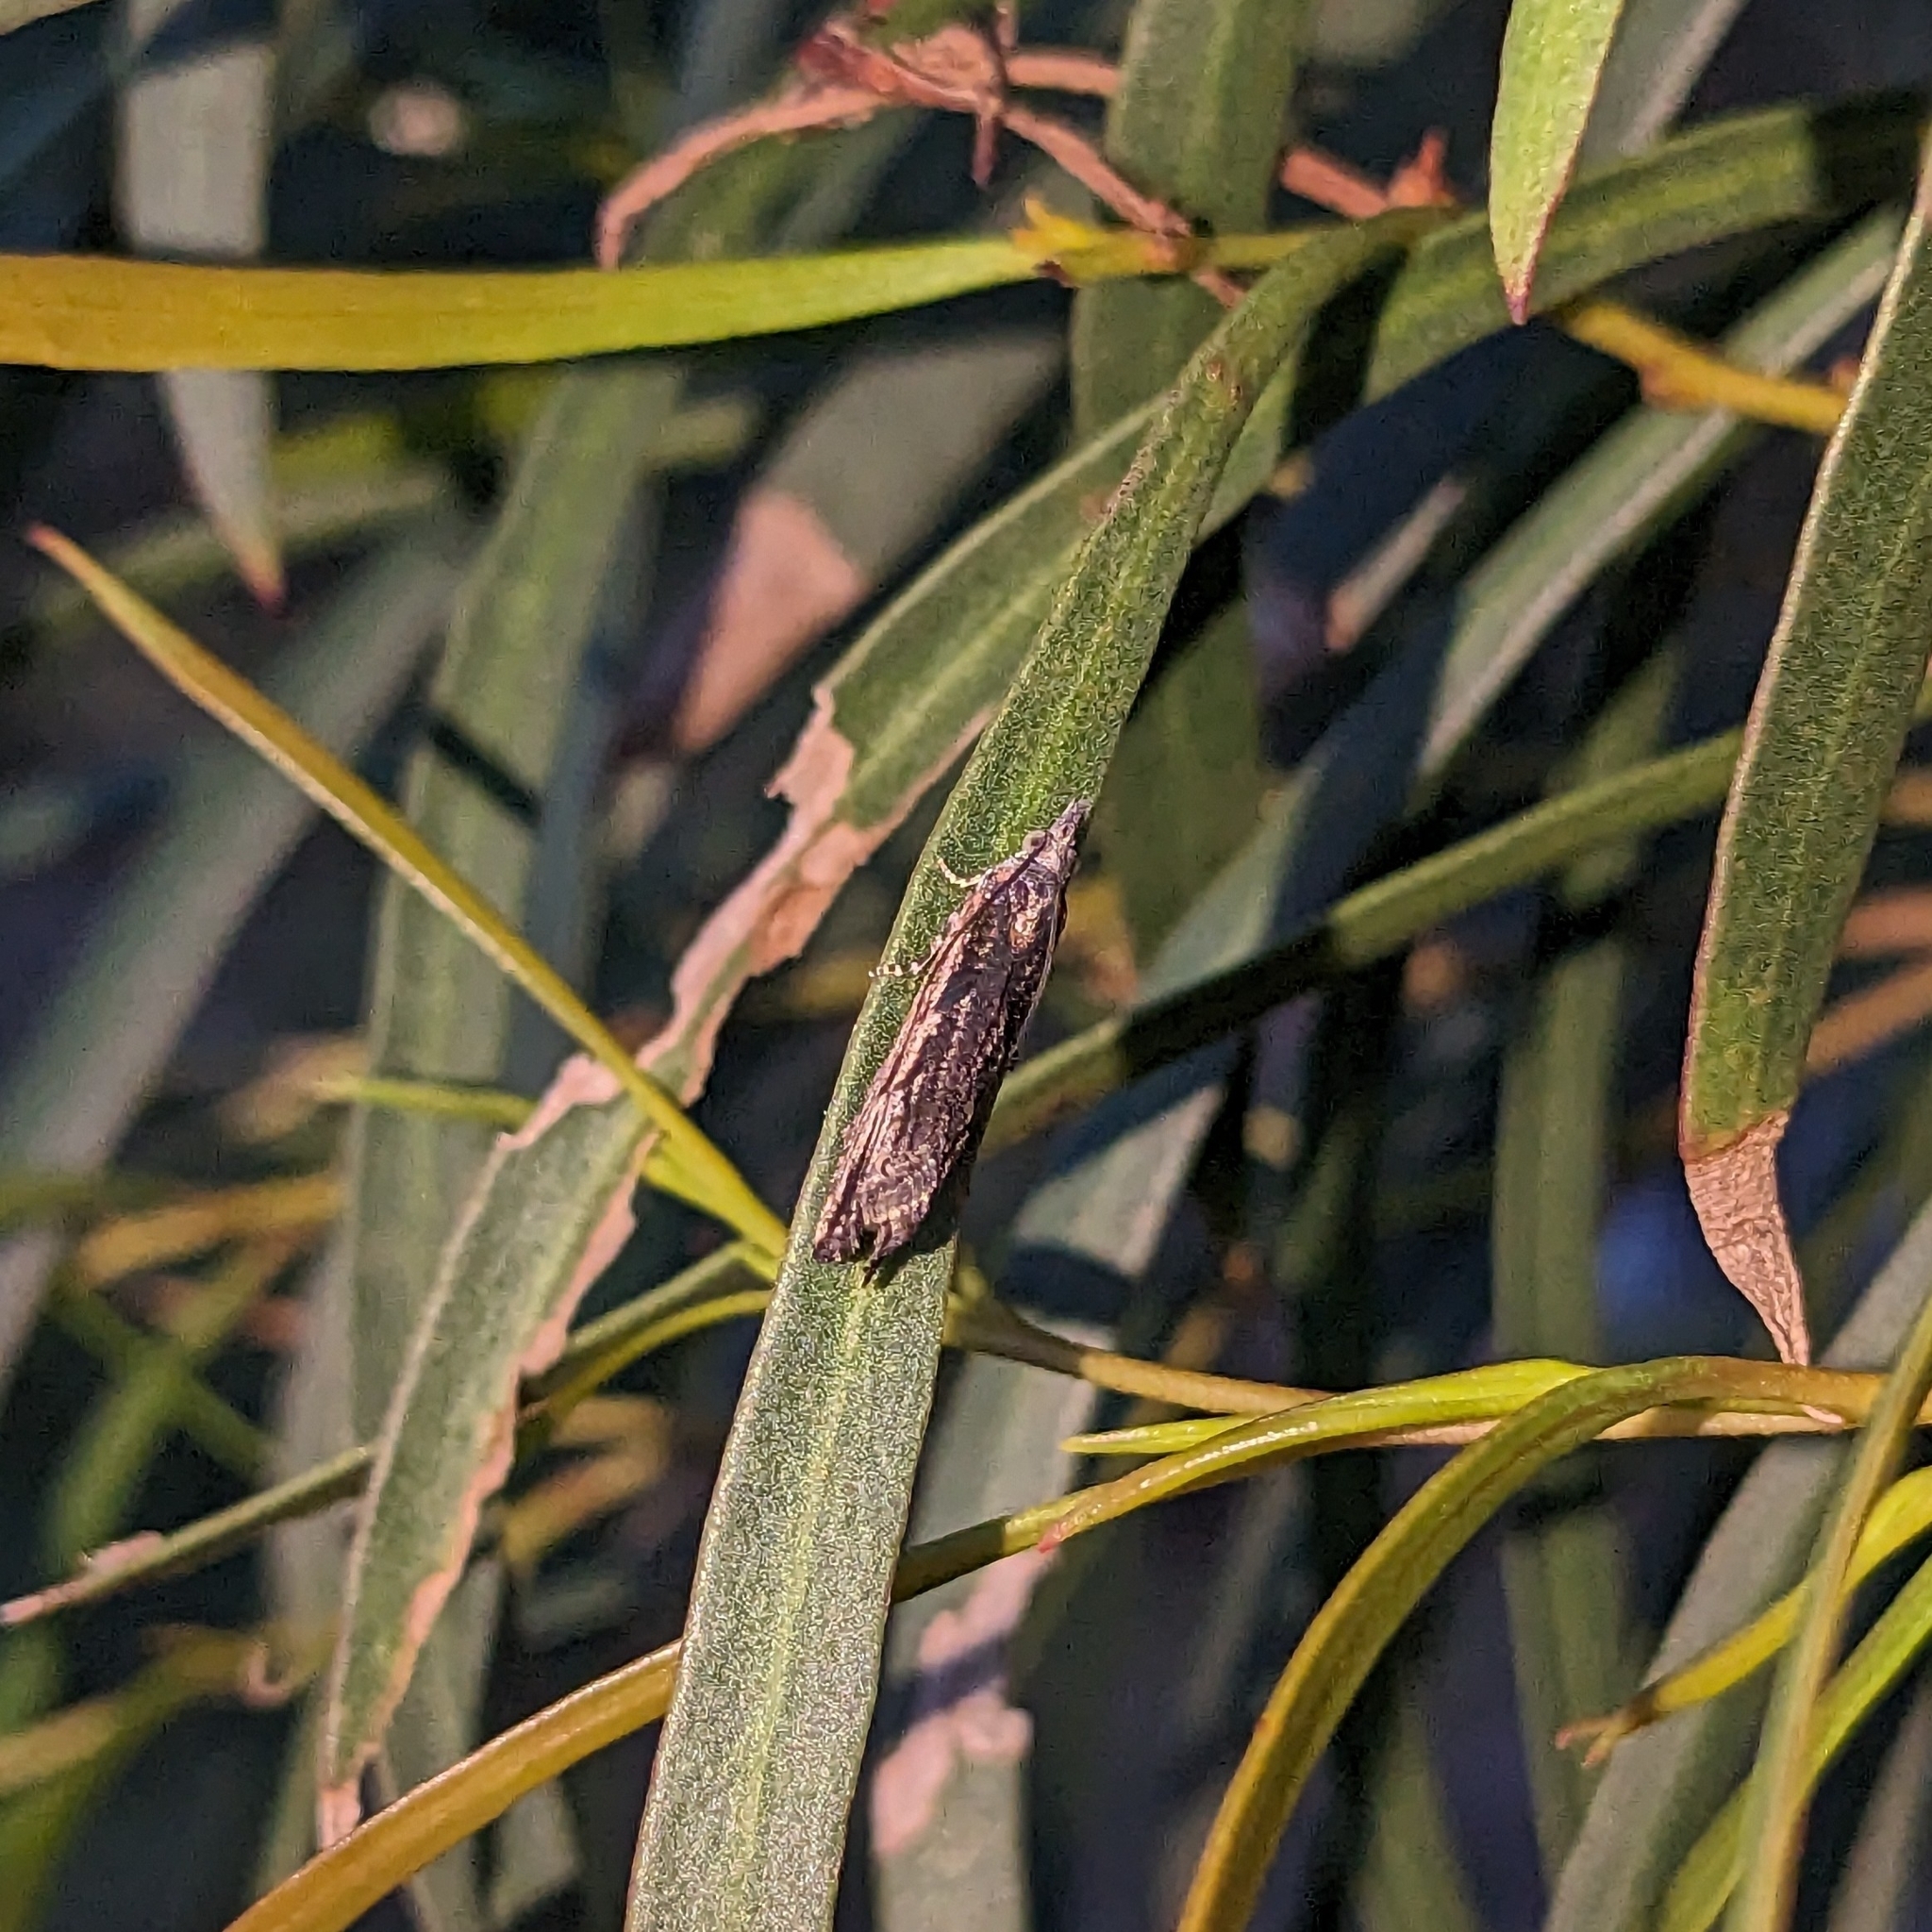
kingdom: Animalia
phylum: Arthropoda
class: Insecta
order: Lepidoptera
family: Tortricidae
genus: Strepsicrates
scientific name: Strepsicrates macropetana
